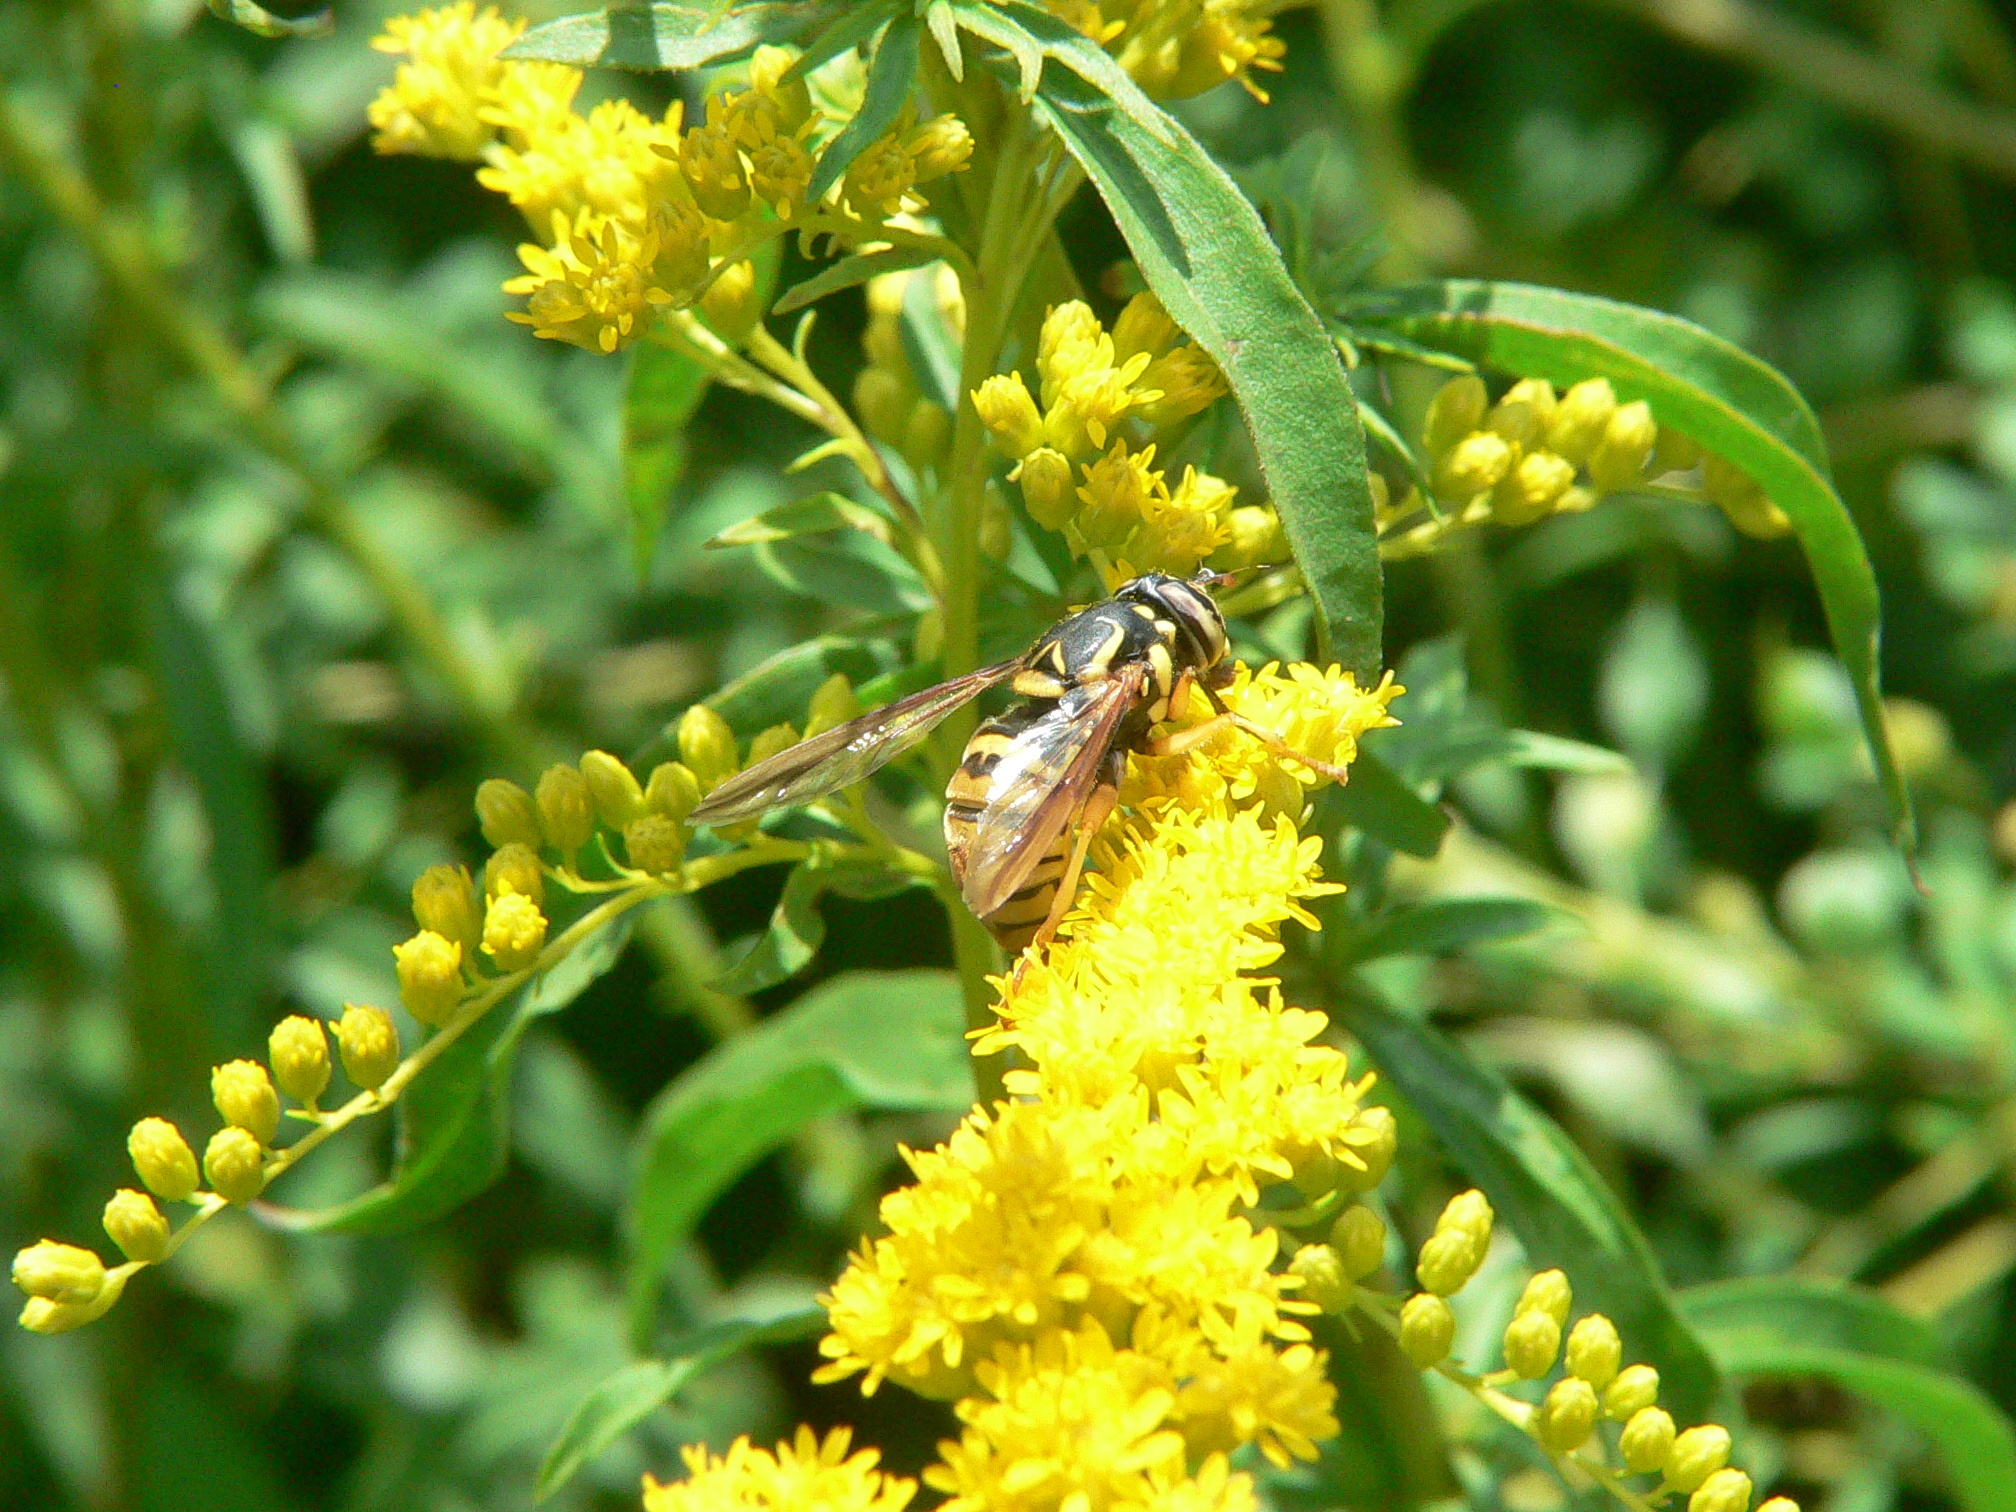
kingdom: Animalia
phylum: Arthropoda
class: Insecta
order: Diptera
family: Syrphidae
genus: Spilomyia
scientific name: Spilomyia alcimus
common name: Broad-banded hornet fly
